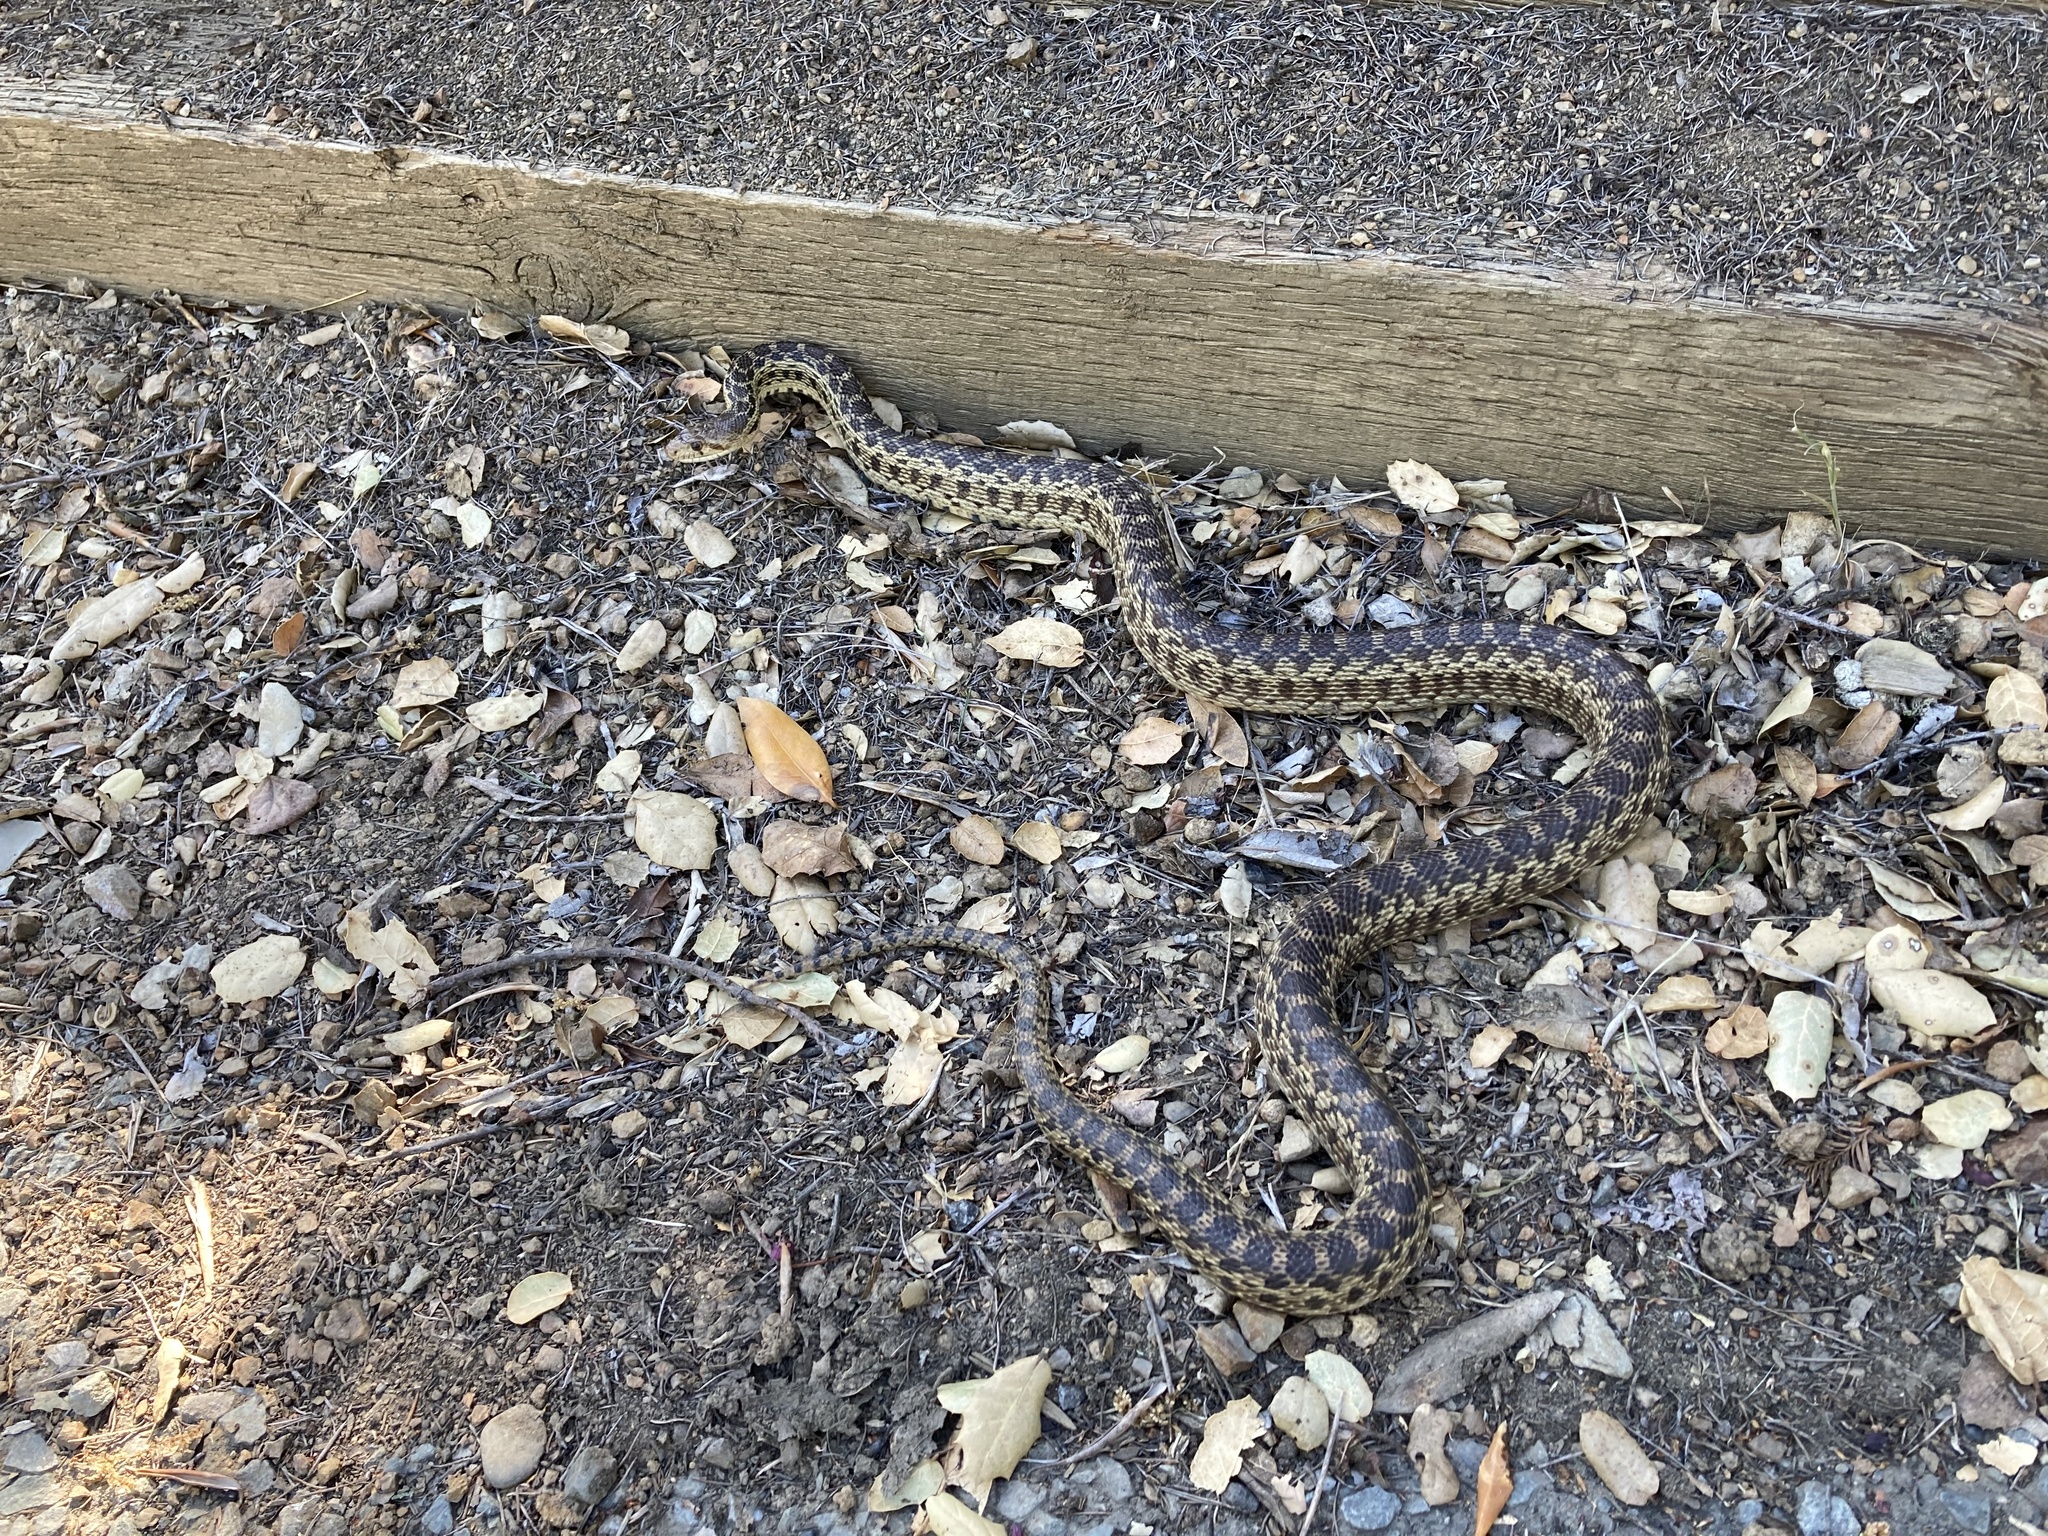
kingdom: Animalia
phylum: Chordata
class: Squamata
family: Colubridae
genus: Pituophis
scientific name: Pituophis catenifer
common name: Gopher snake
